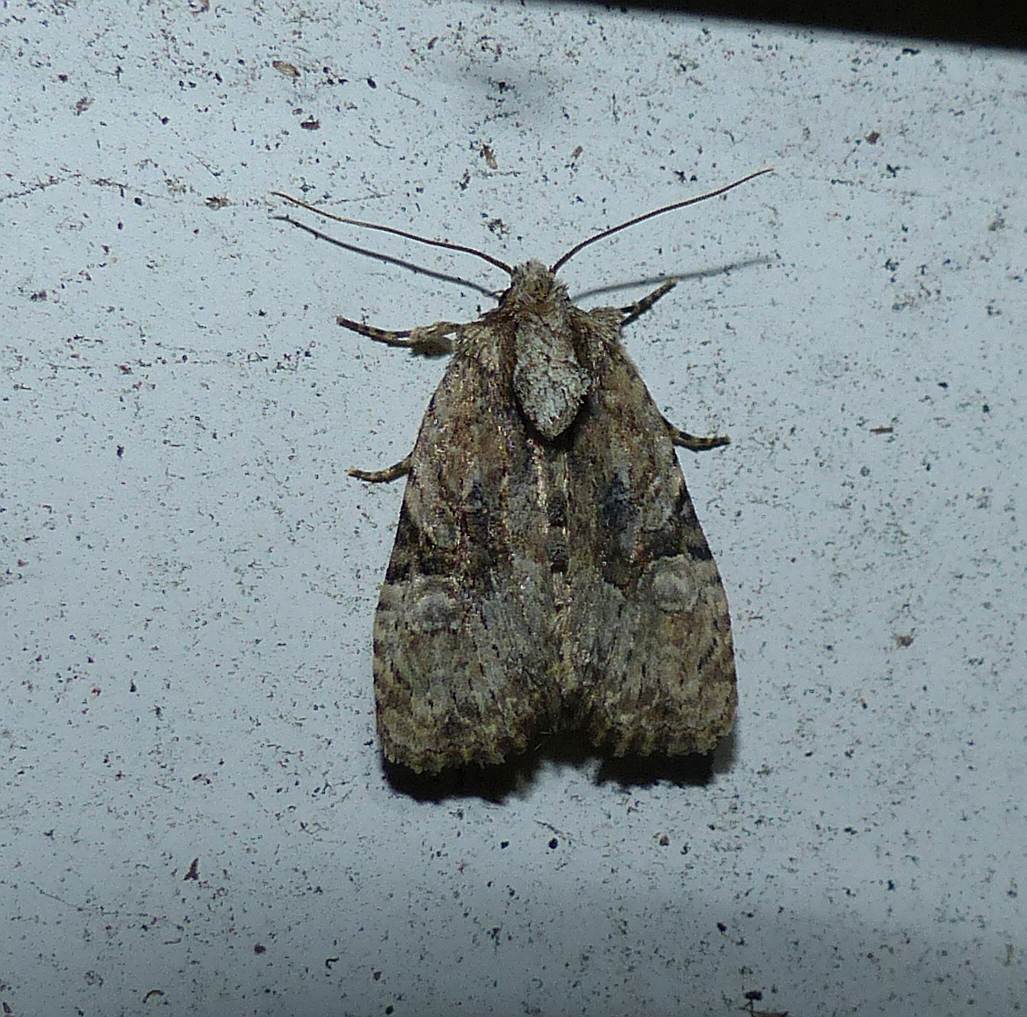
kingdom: Animalia
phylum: Arthropoda
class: Insecta
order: Lepidoptera
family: Noctuidae
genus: Oligia
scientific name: Oligia modica
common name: Black-banded brocade
